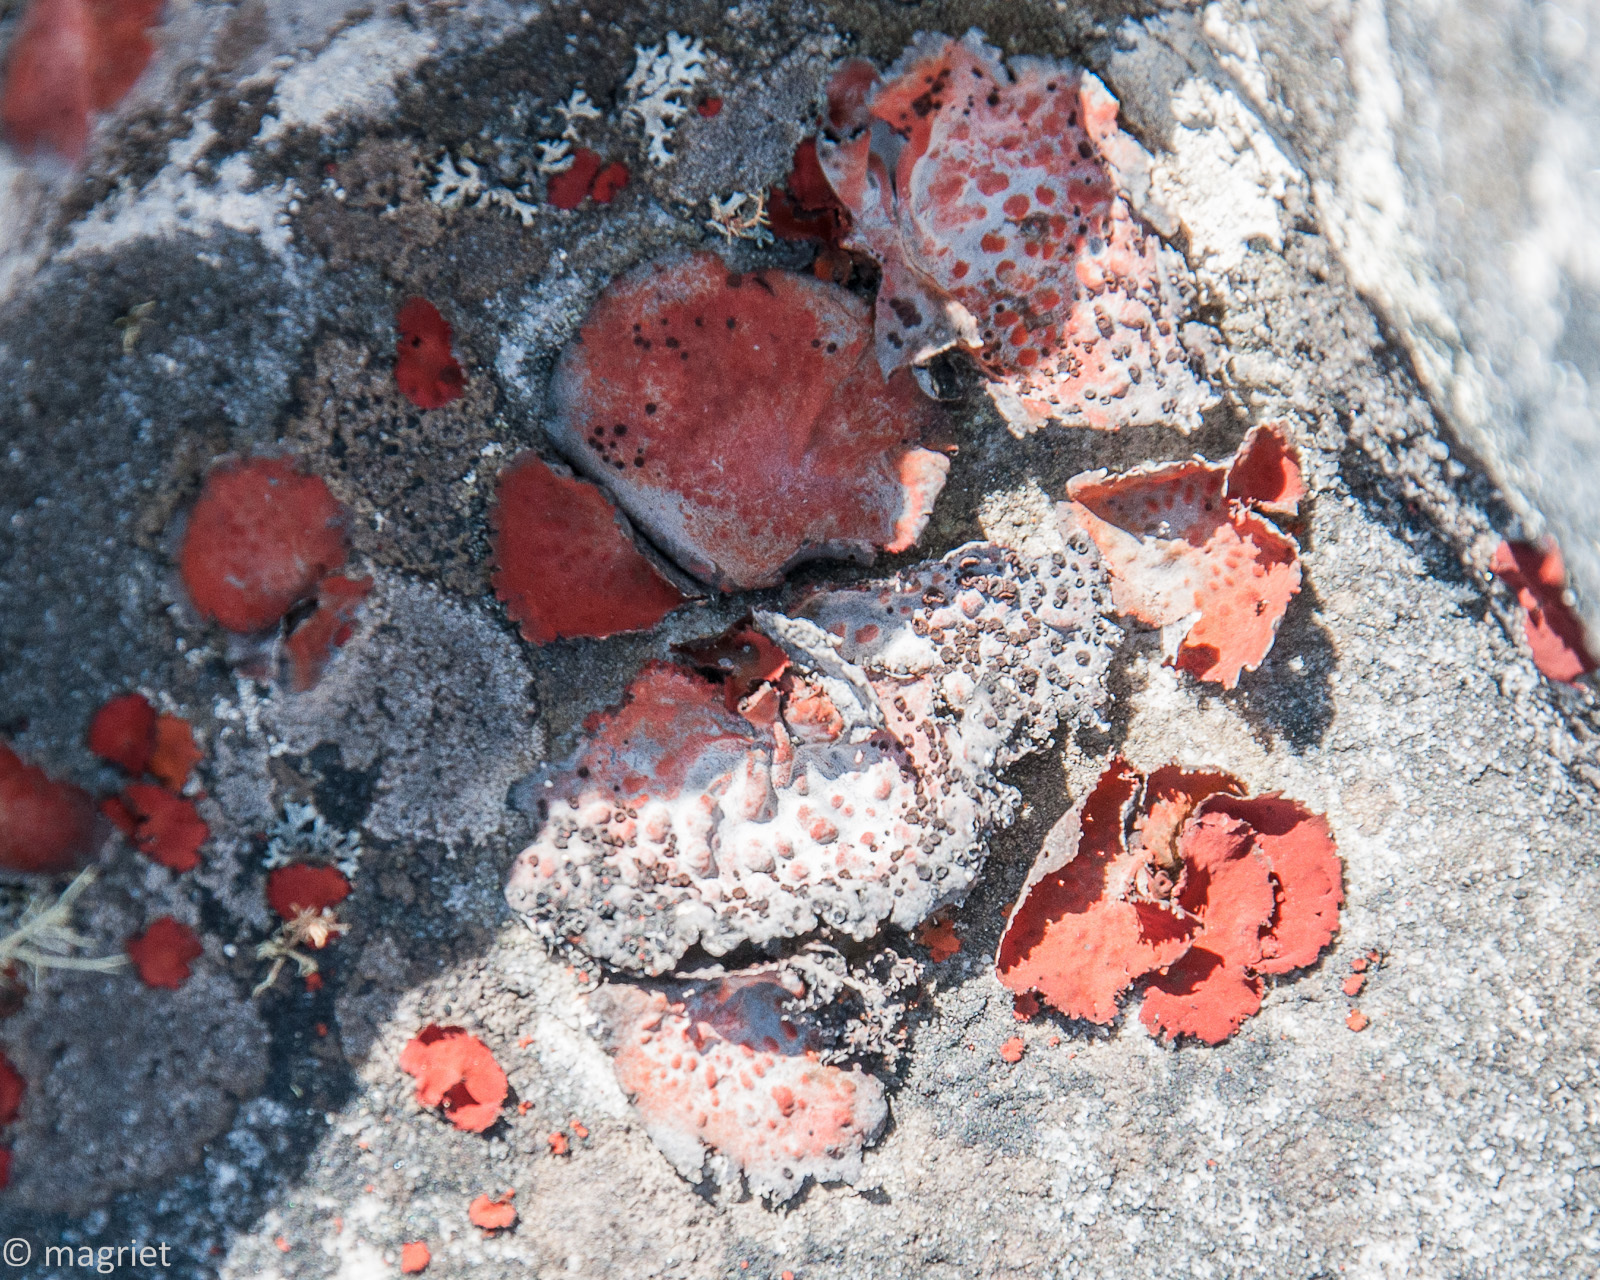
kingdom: Fungi
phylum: Ascomycota
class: Lecanoromycetes
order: Umbilicariales
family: Umbilicariaceae
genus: Lasallia
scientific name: Lasallia rubiginosa
